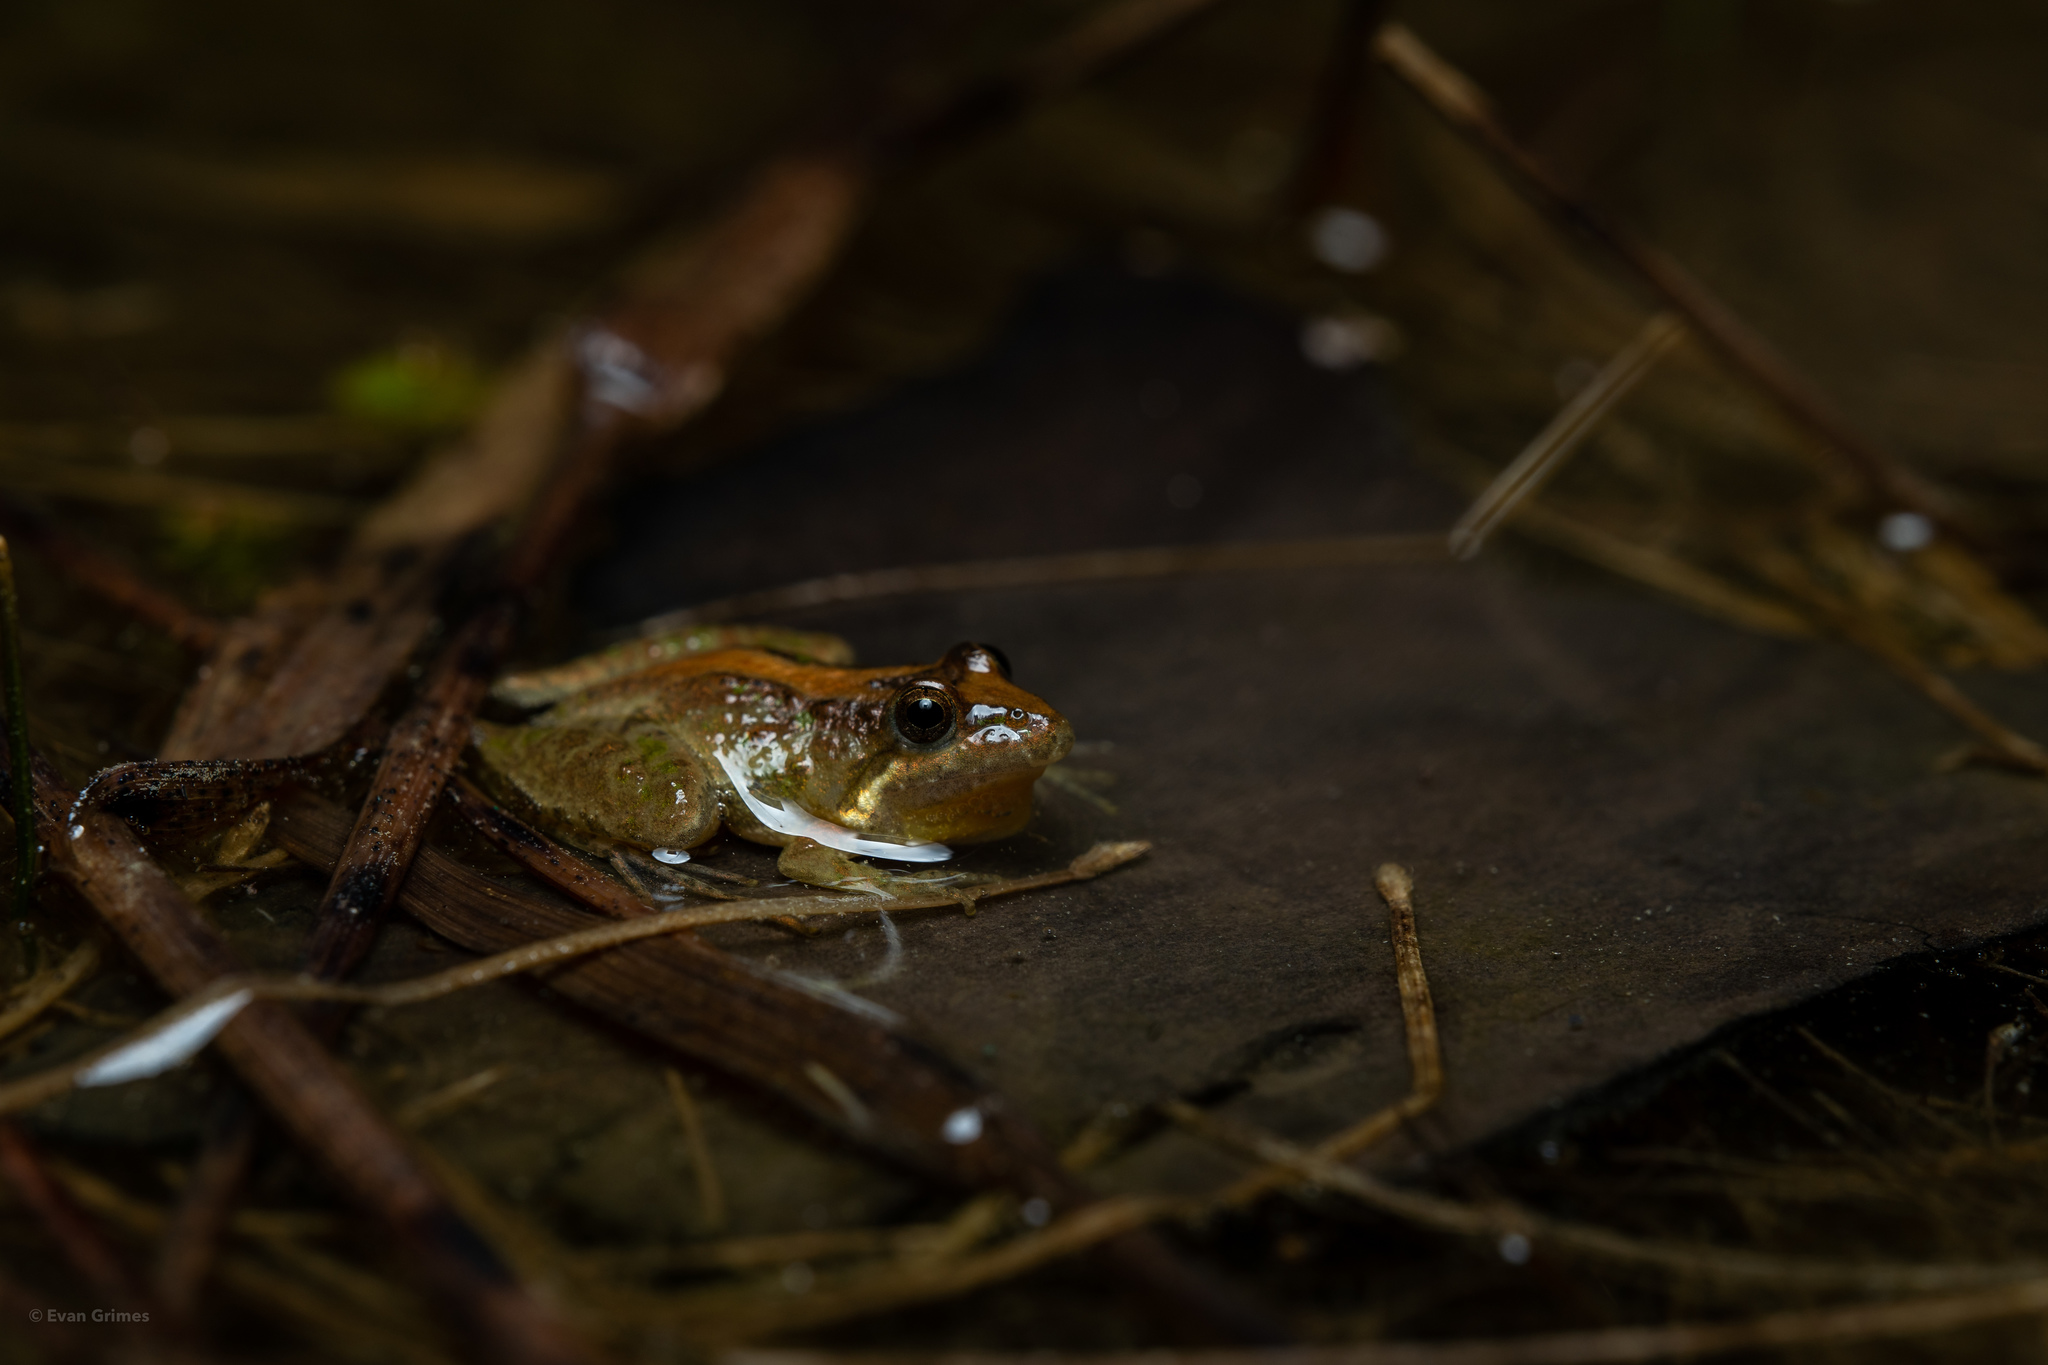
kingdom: Animalia
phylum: Chordata
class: Amphibia
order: Anura
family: Hylidae
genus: Acris
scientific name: Acris gryllus
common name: Southern cricket frog
